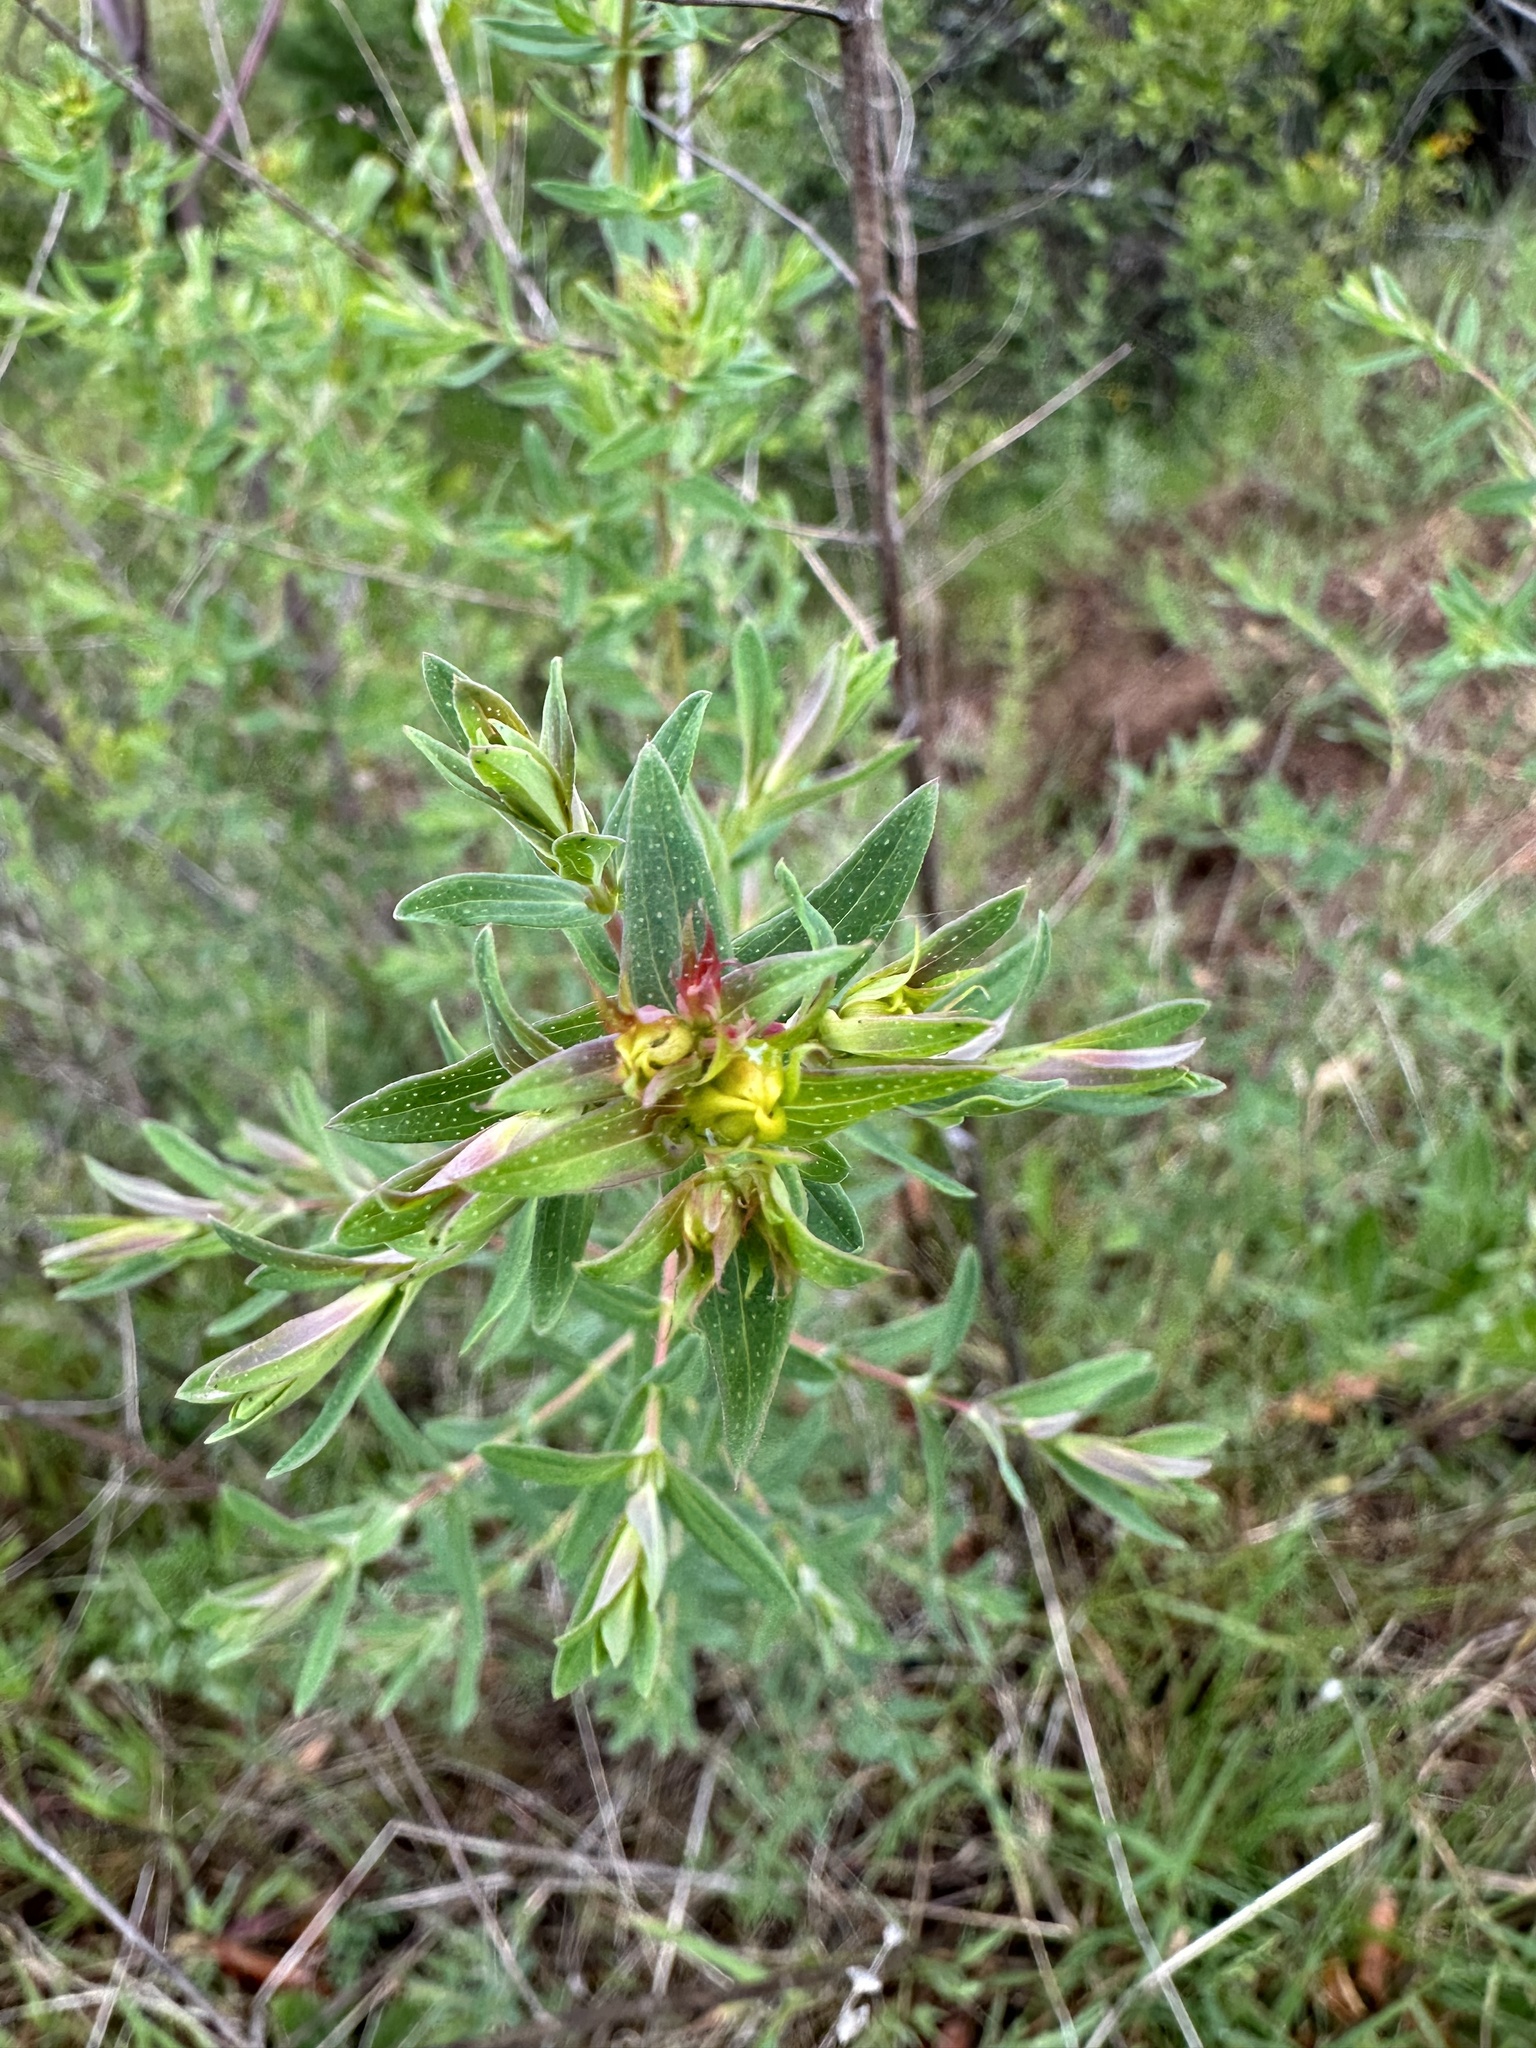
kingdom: Plantae
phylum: Tracheophyta
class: Magnoliopsida
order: Malpighiales
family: Hypericaceae
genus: Hypericum
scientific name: Hypericum perforatum
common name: Common st. johnswort
